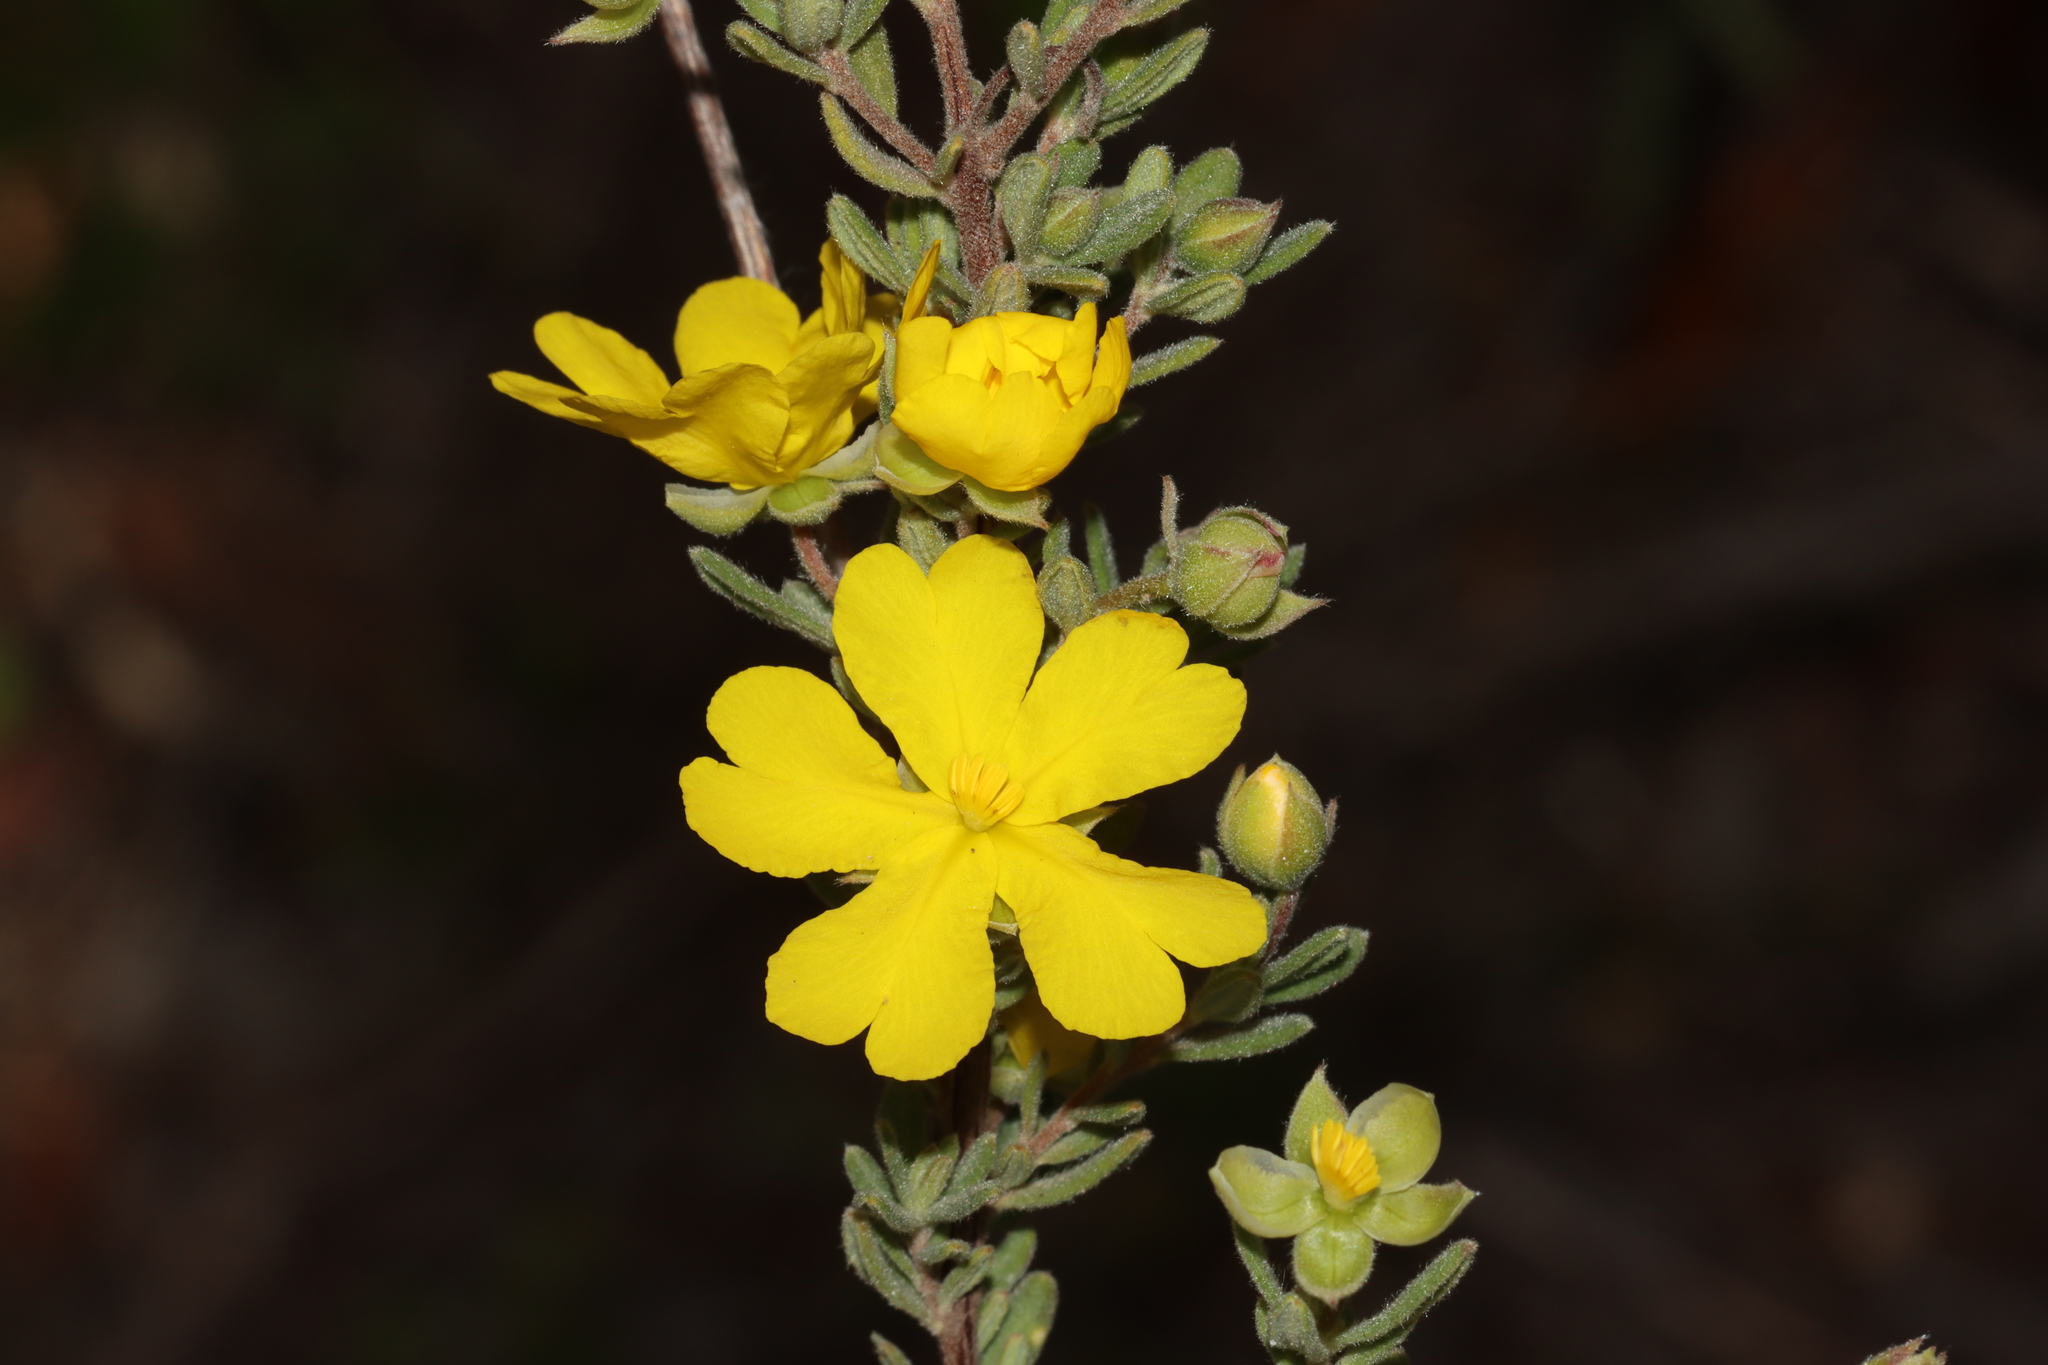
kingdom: Plantae
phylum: Tracheophyta
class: Magnoliopsida
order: Dilleniales
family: Dilleniaceae
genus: Hibbertia
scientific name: Hibbertia cinerea
